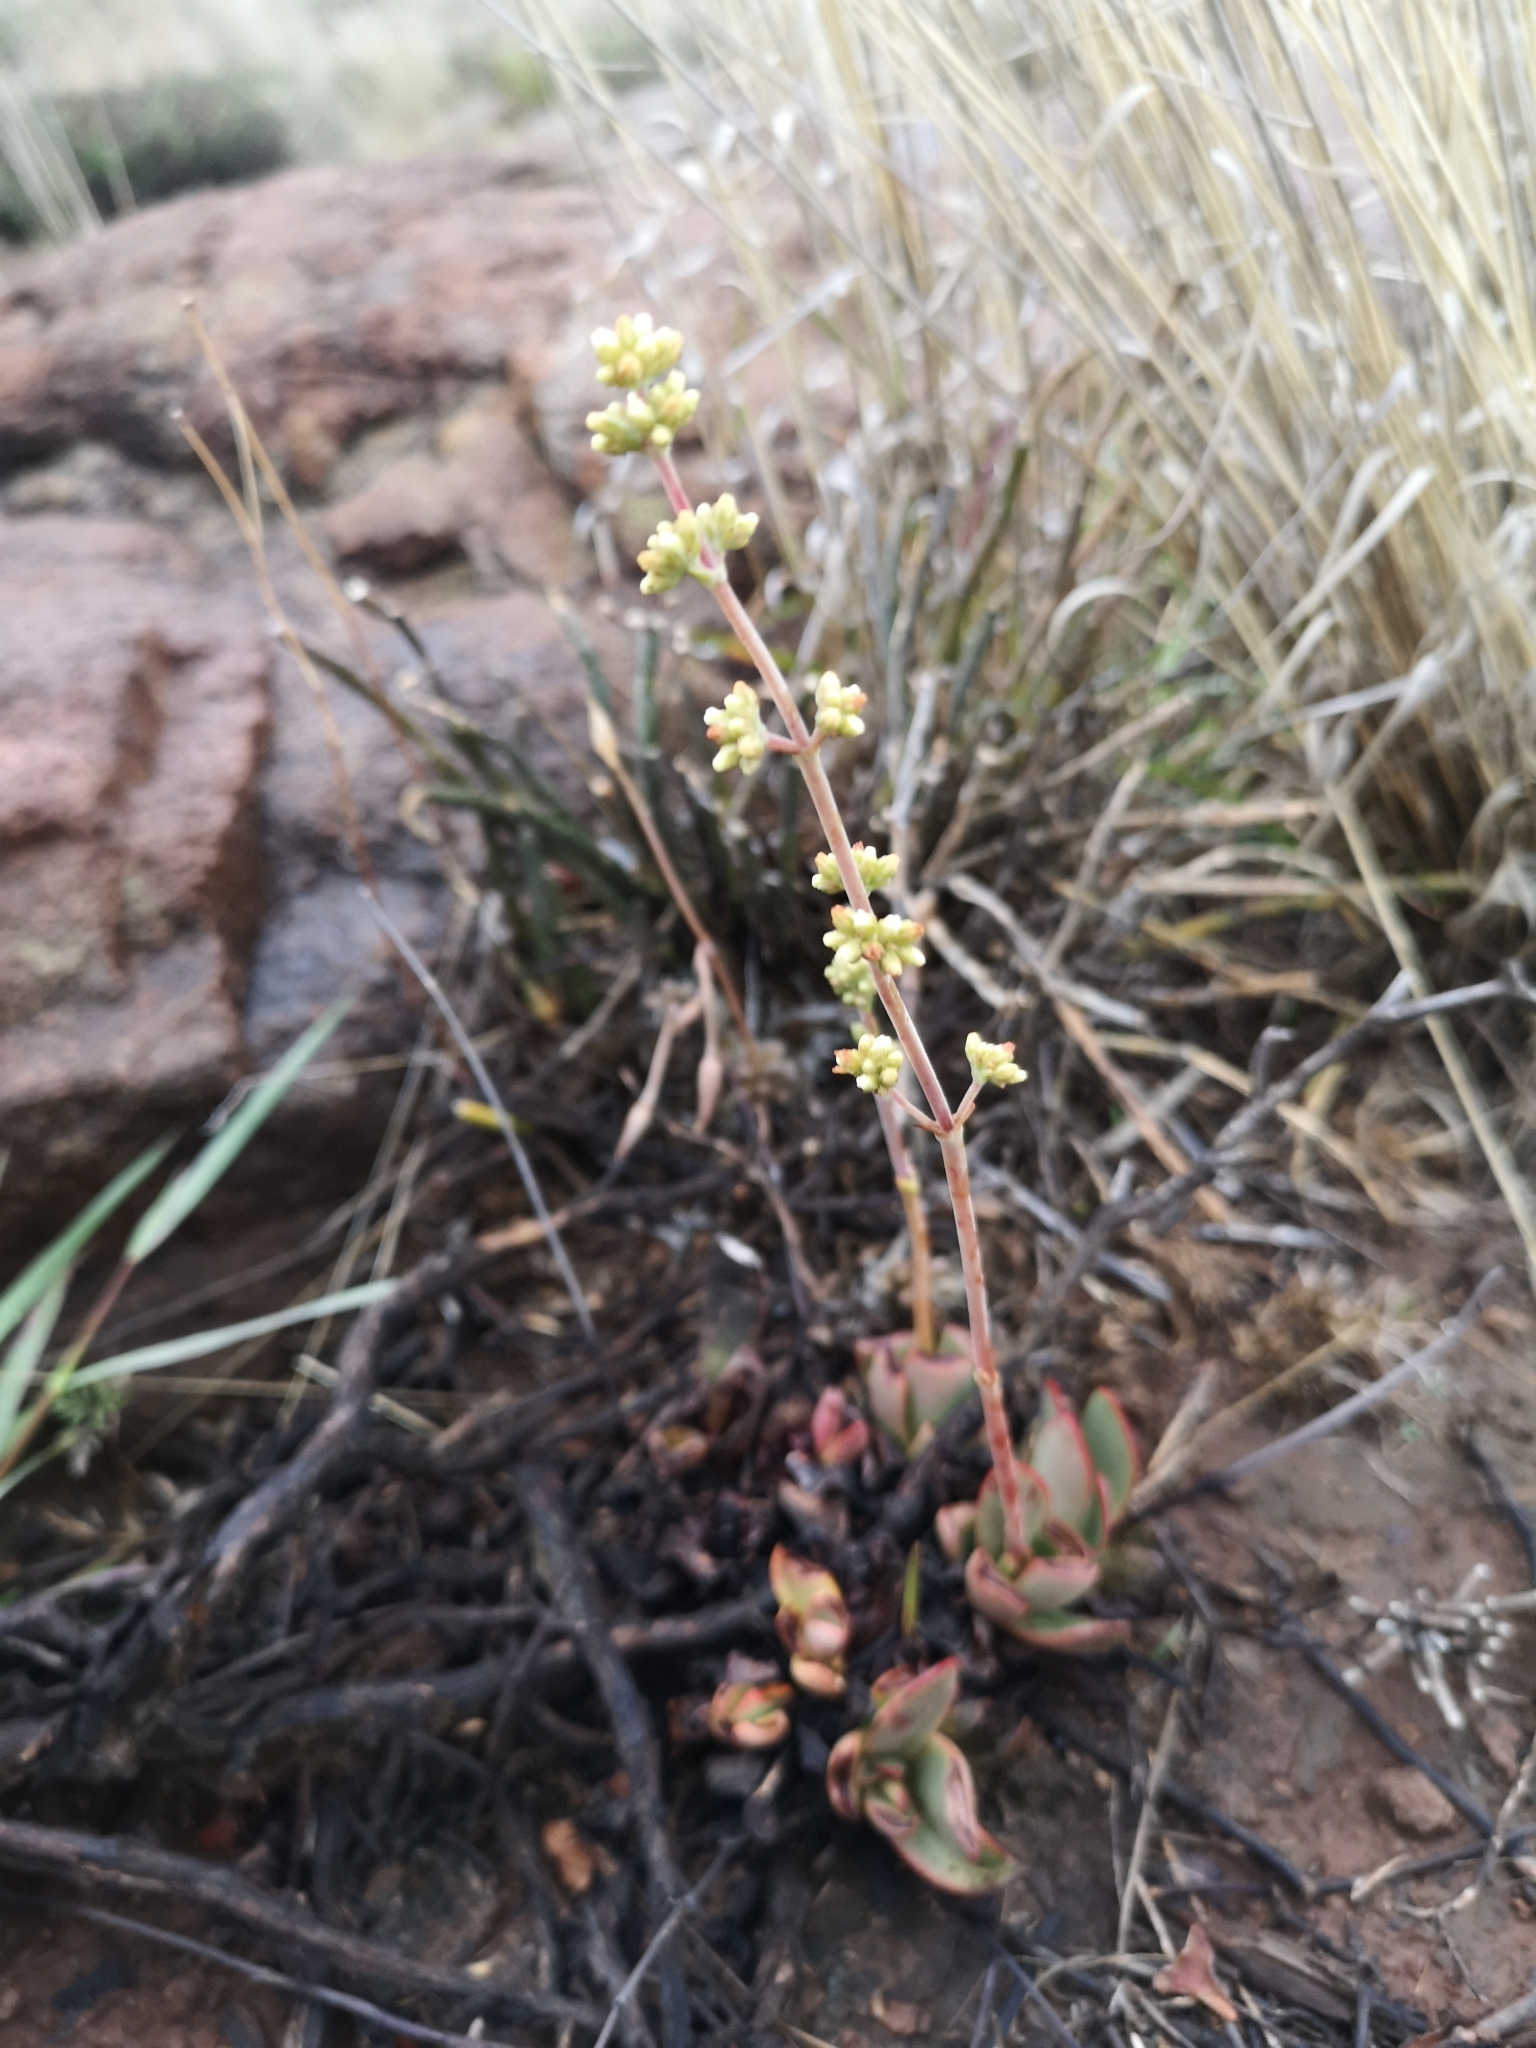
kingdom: Plantae
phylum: Tracheophyta
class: Magnoliopsida
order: Saxifragales
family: Crassulaceae
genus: Crassula
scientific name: Crassula nudicaulis
